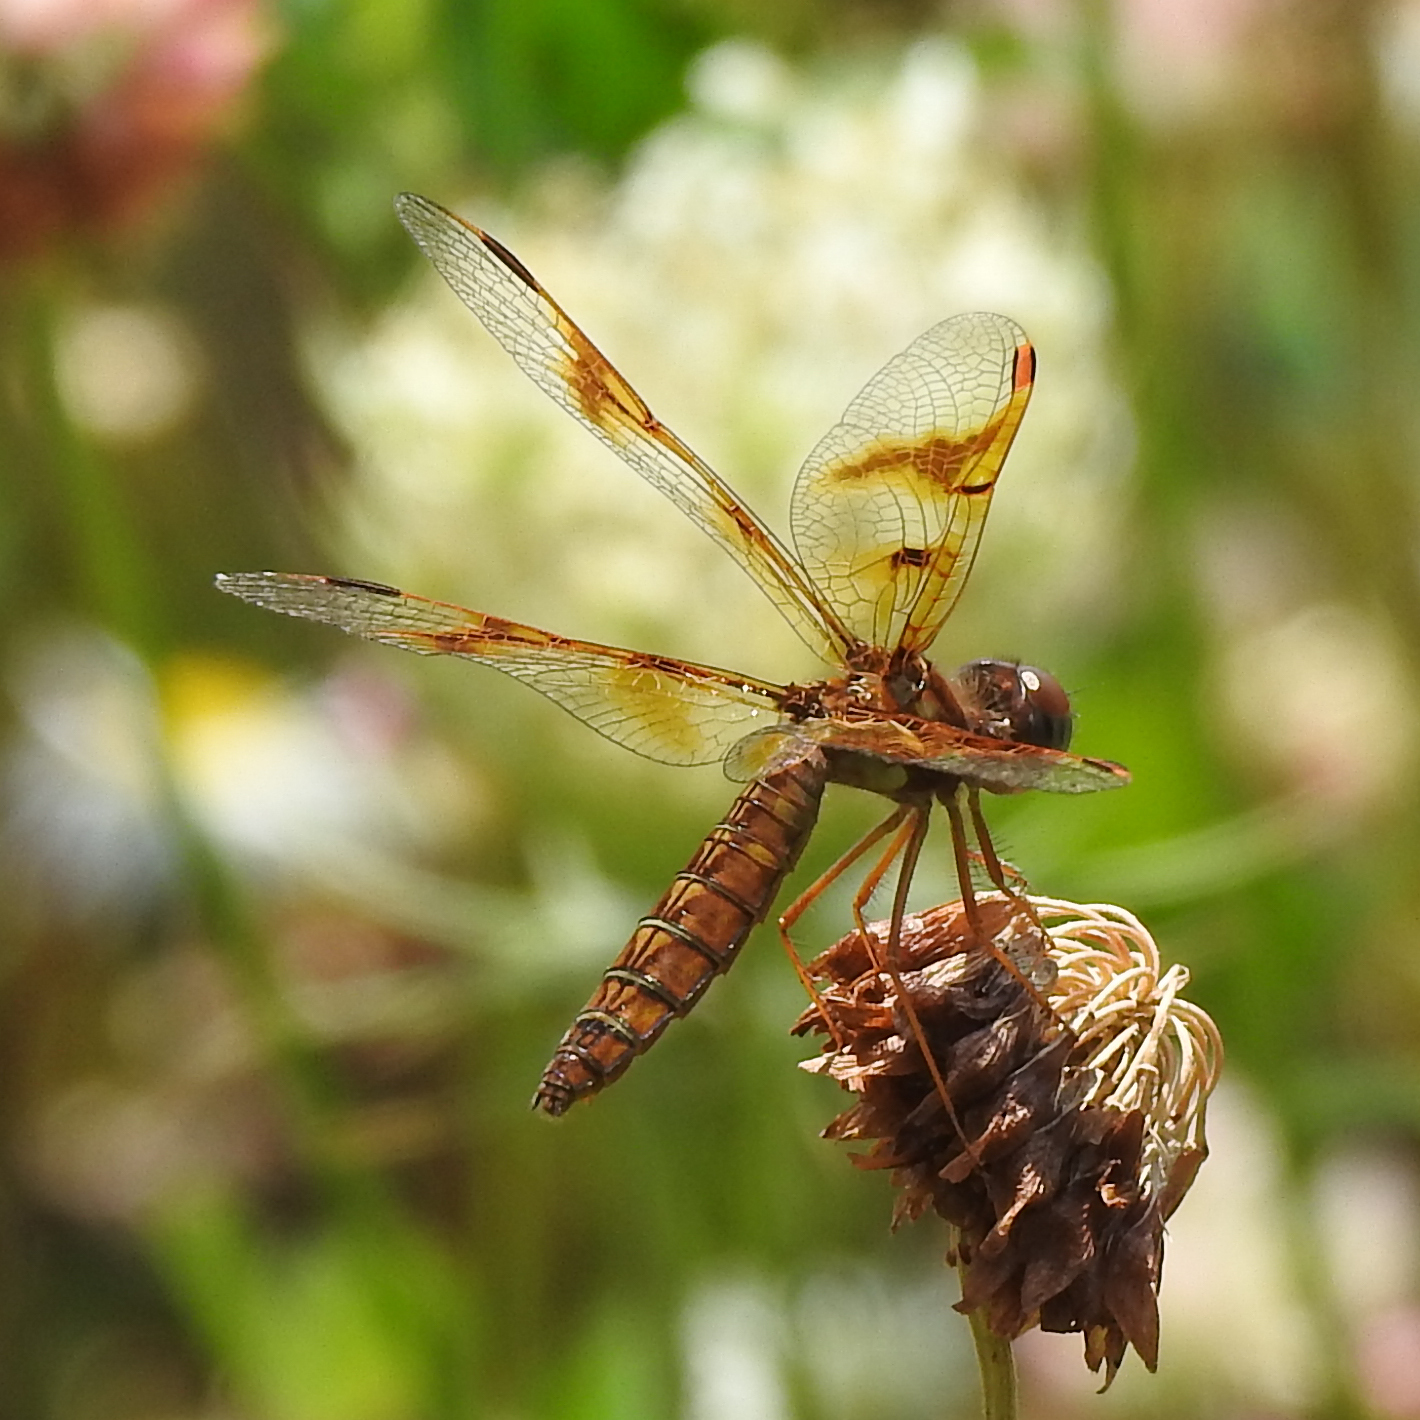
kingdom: Animalia
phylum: Arthropoda
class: Insecta
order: Odonata
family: Libellulidae
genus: Perithemis
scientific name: Perithemis tenera
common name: Eastern amberwing
